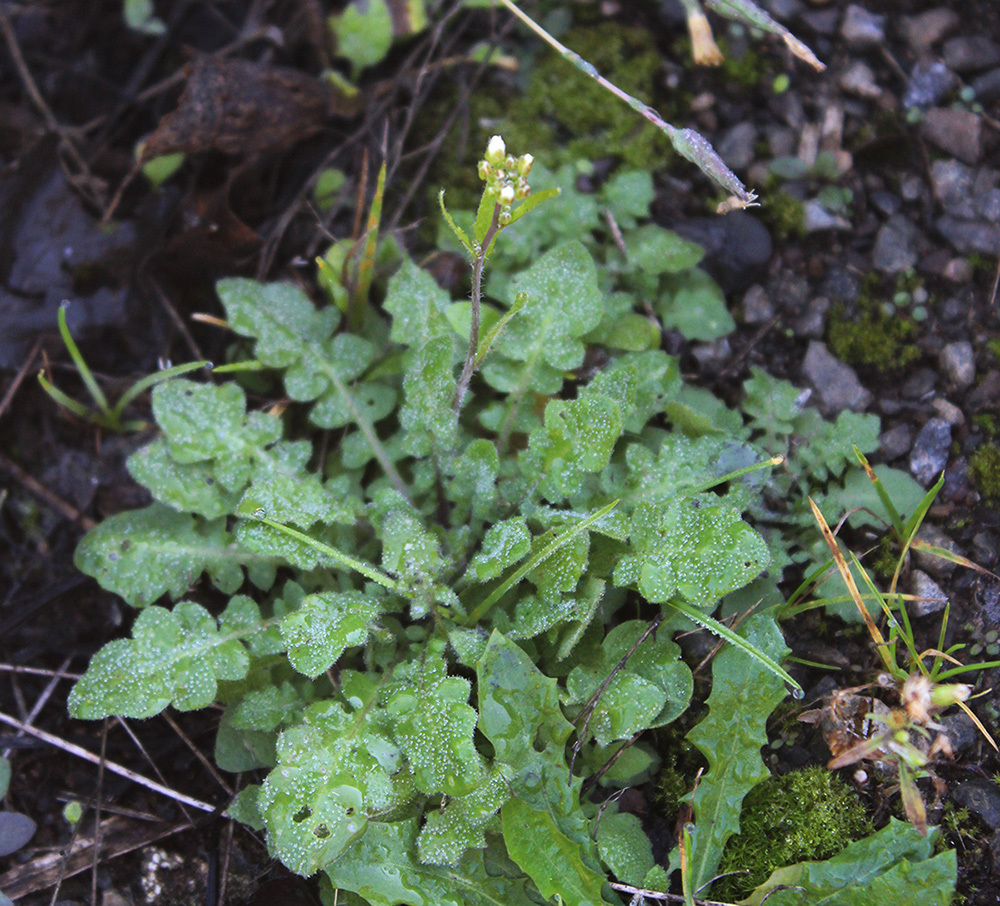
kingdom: Plantae
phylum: Tracheophyta
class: Magnoliopsida
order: Brassicales
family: Brassicaceae
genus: Arabidopsis
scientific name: Arabidopsis arenosa
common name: Sand rock-cress
